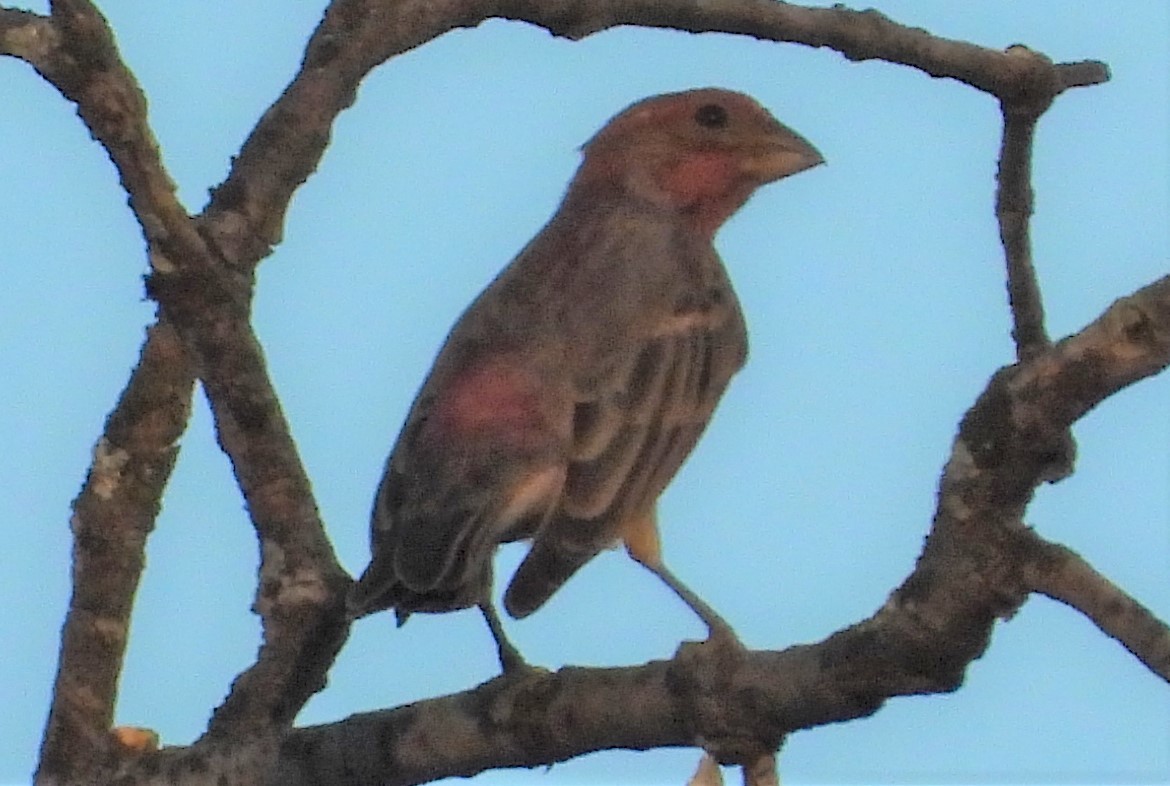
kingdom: Animalia
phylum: Chordata
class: Aves
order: Passeriformes
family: Fringillidae
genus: Haemorhous
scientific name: Haemorhous mexicanus
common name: House finch
